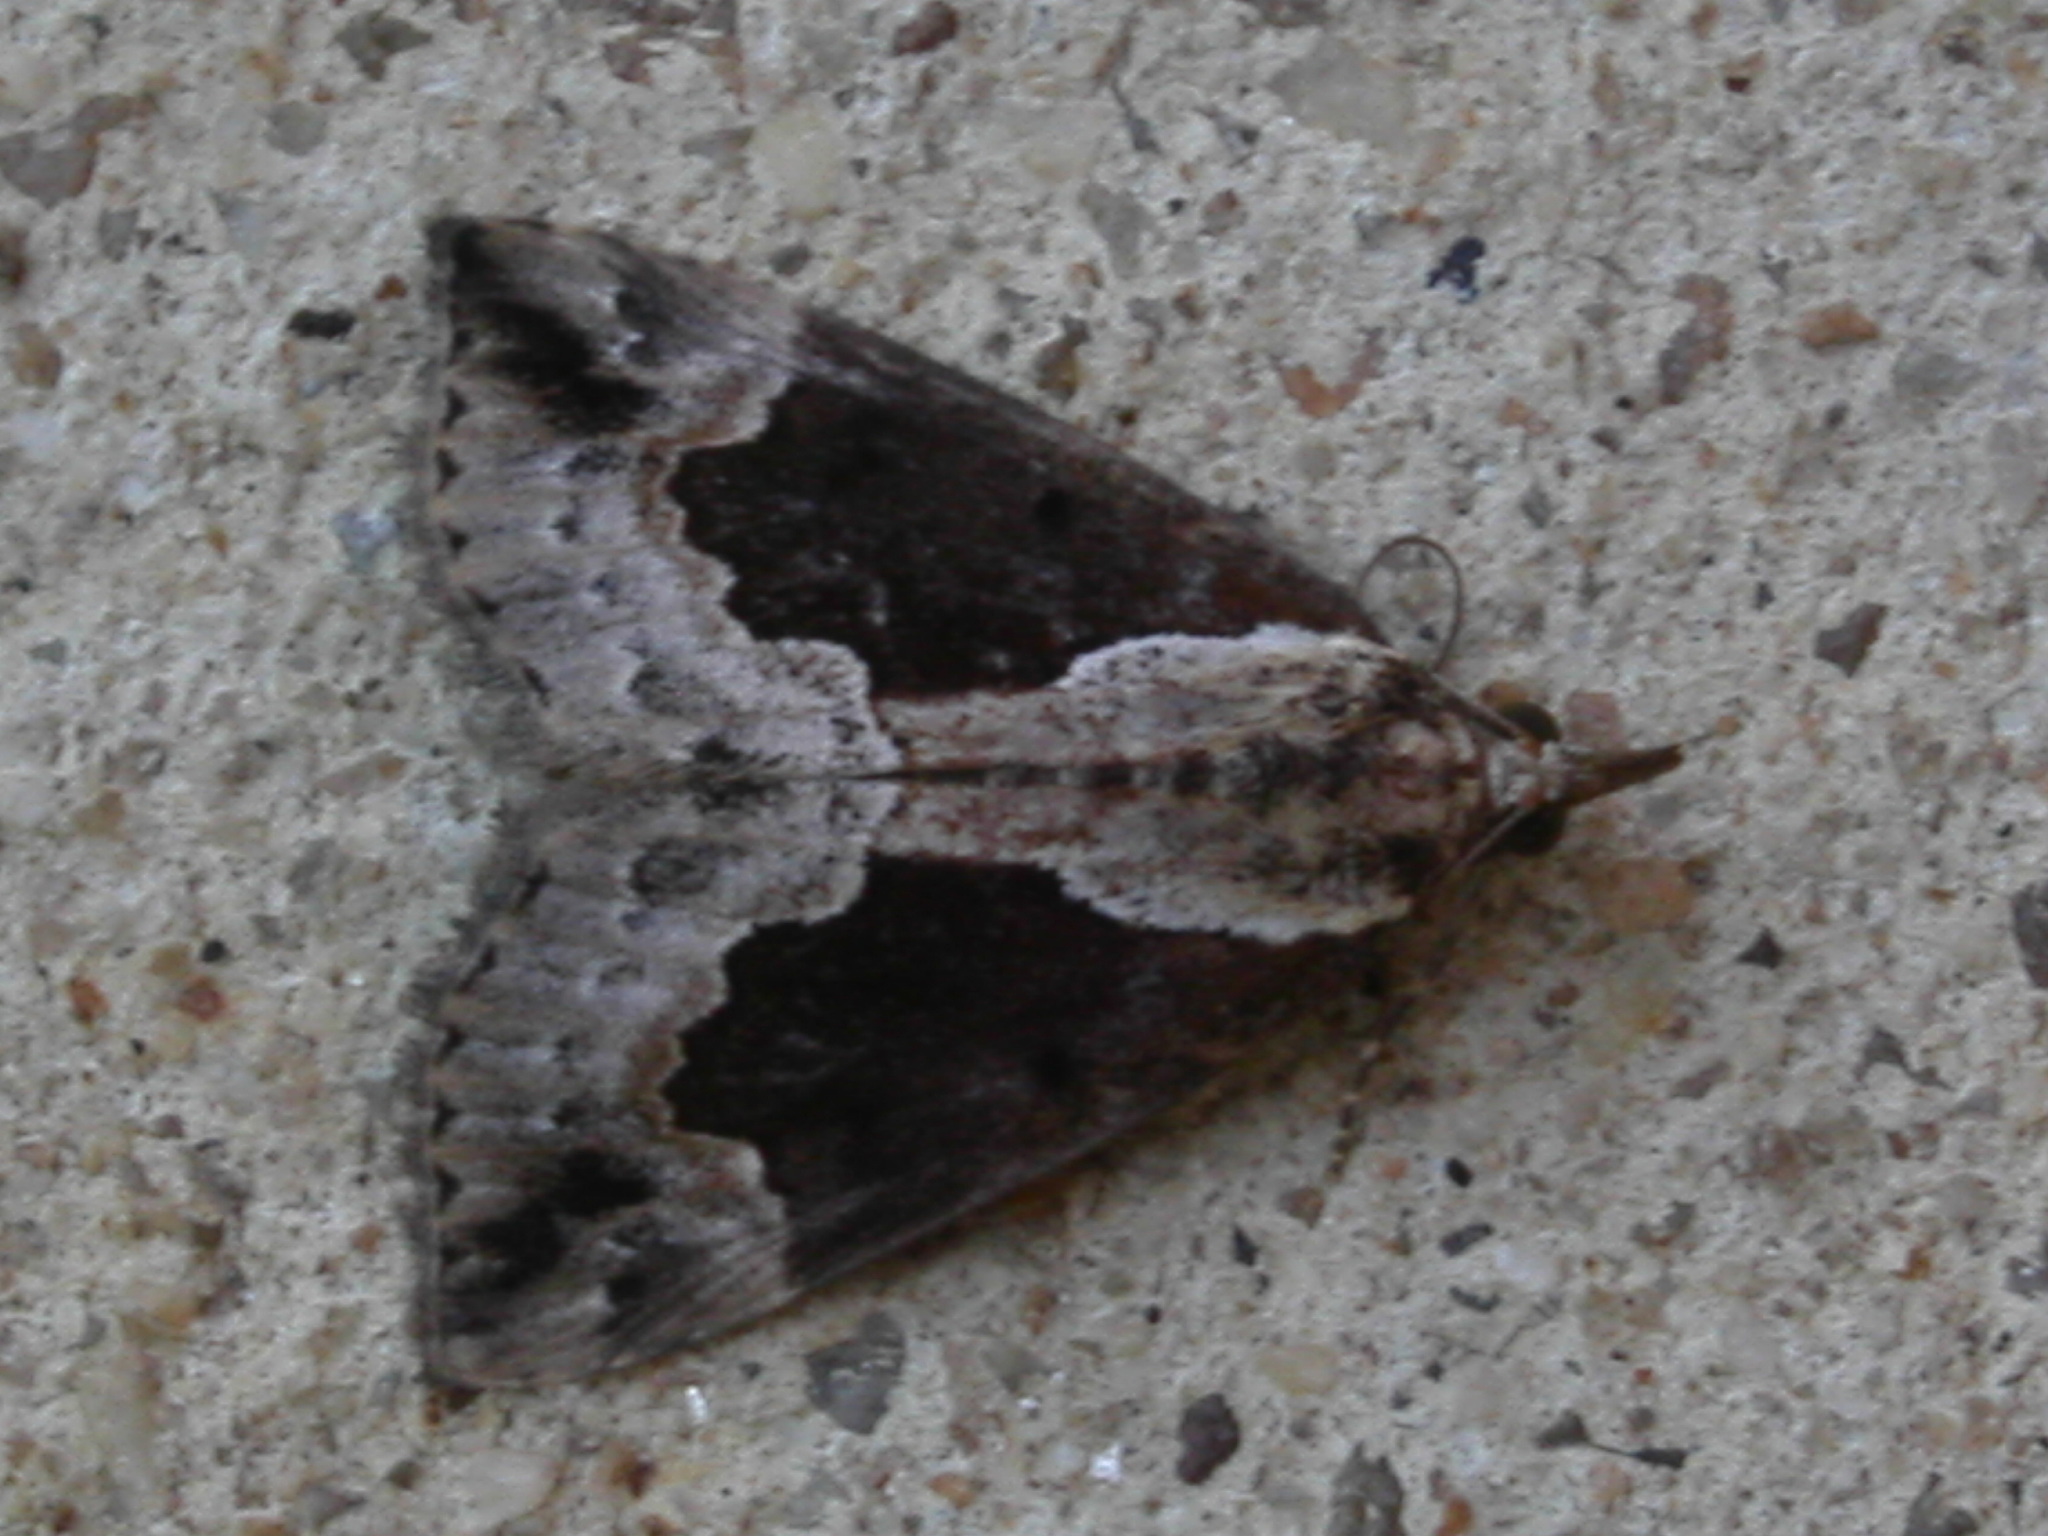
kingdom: Animalia
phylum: Arthropoda
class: Insecta
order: Lepidoptera
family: Erebidae
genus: Hypena
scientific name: Hypena baltimoralis
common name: Baltimore snout
